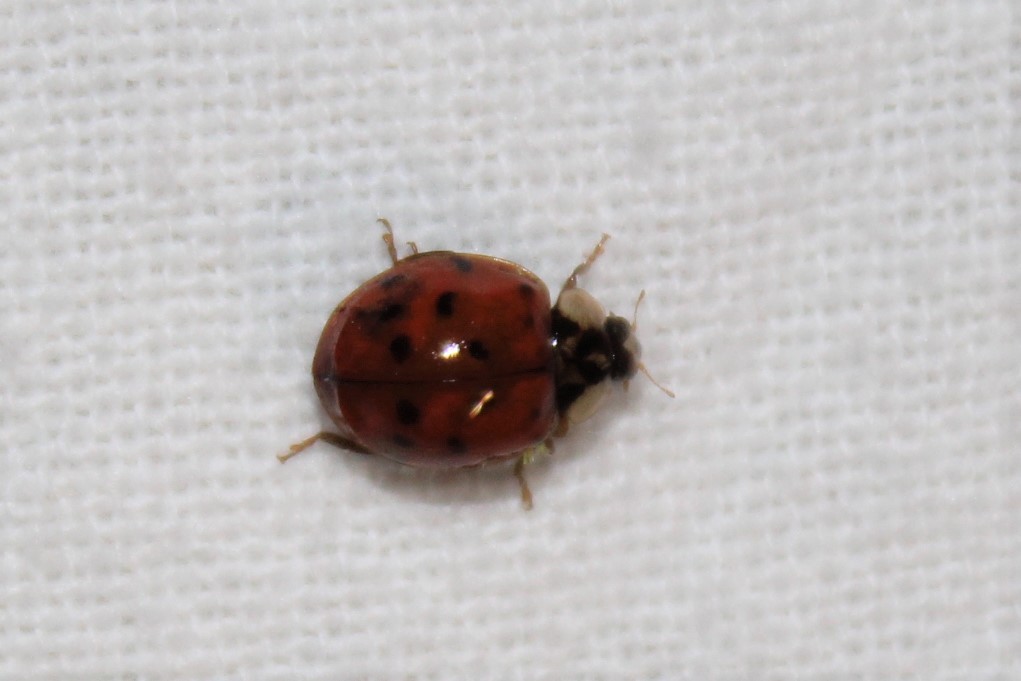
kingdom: Animalia
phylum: Arthropoda
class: Insecta
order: Coleoptera
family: Coccinellidae
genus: Harmonia
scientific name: Harmonia axyridis
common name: Harlequin ladybird
